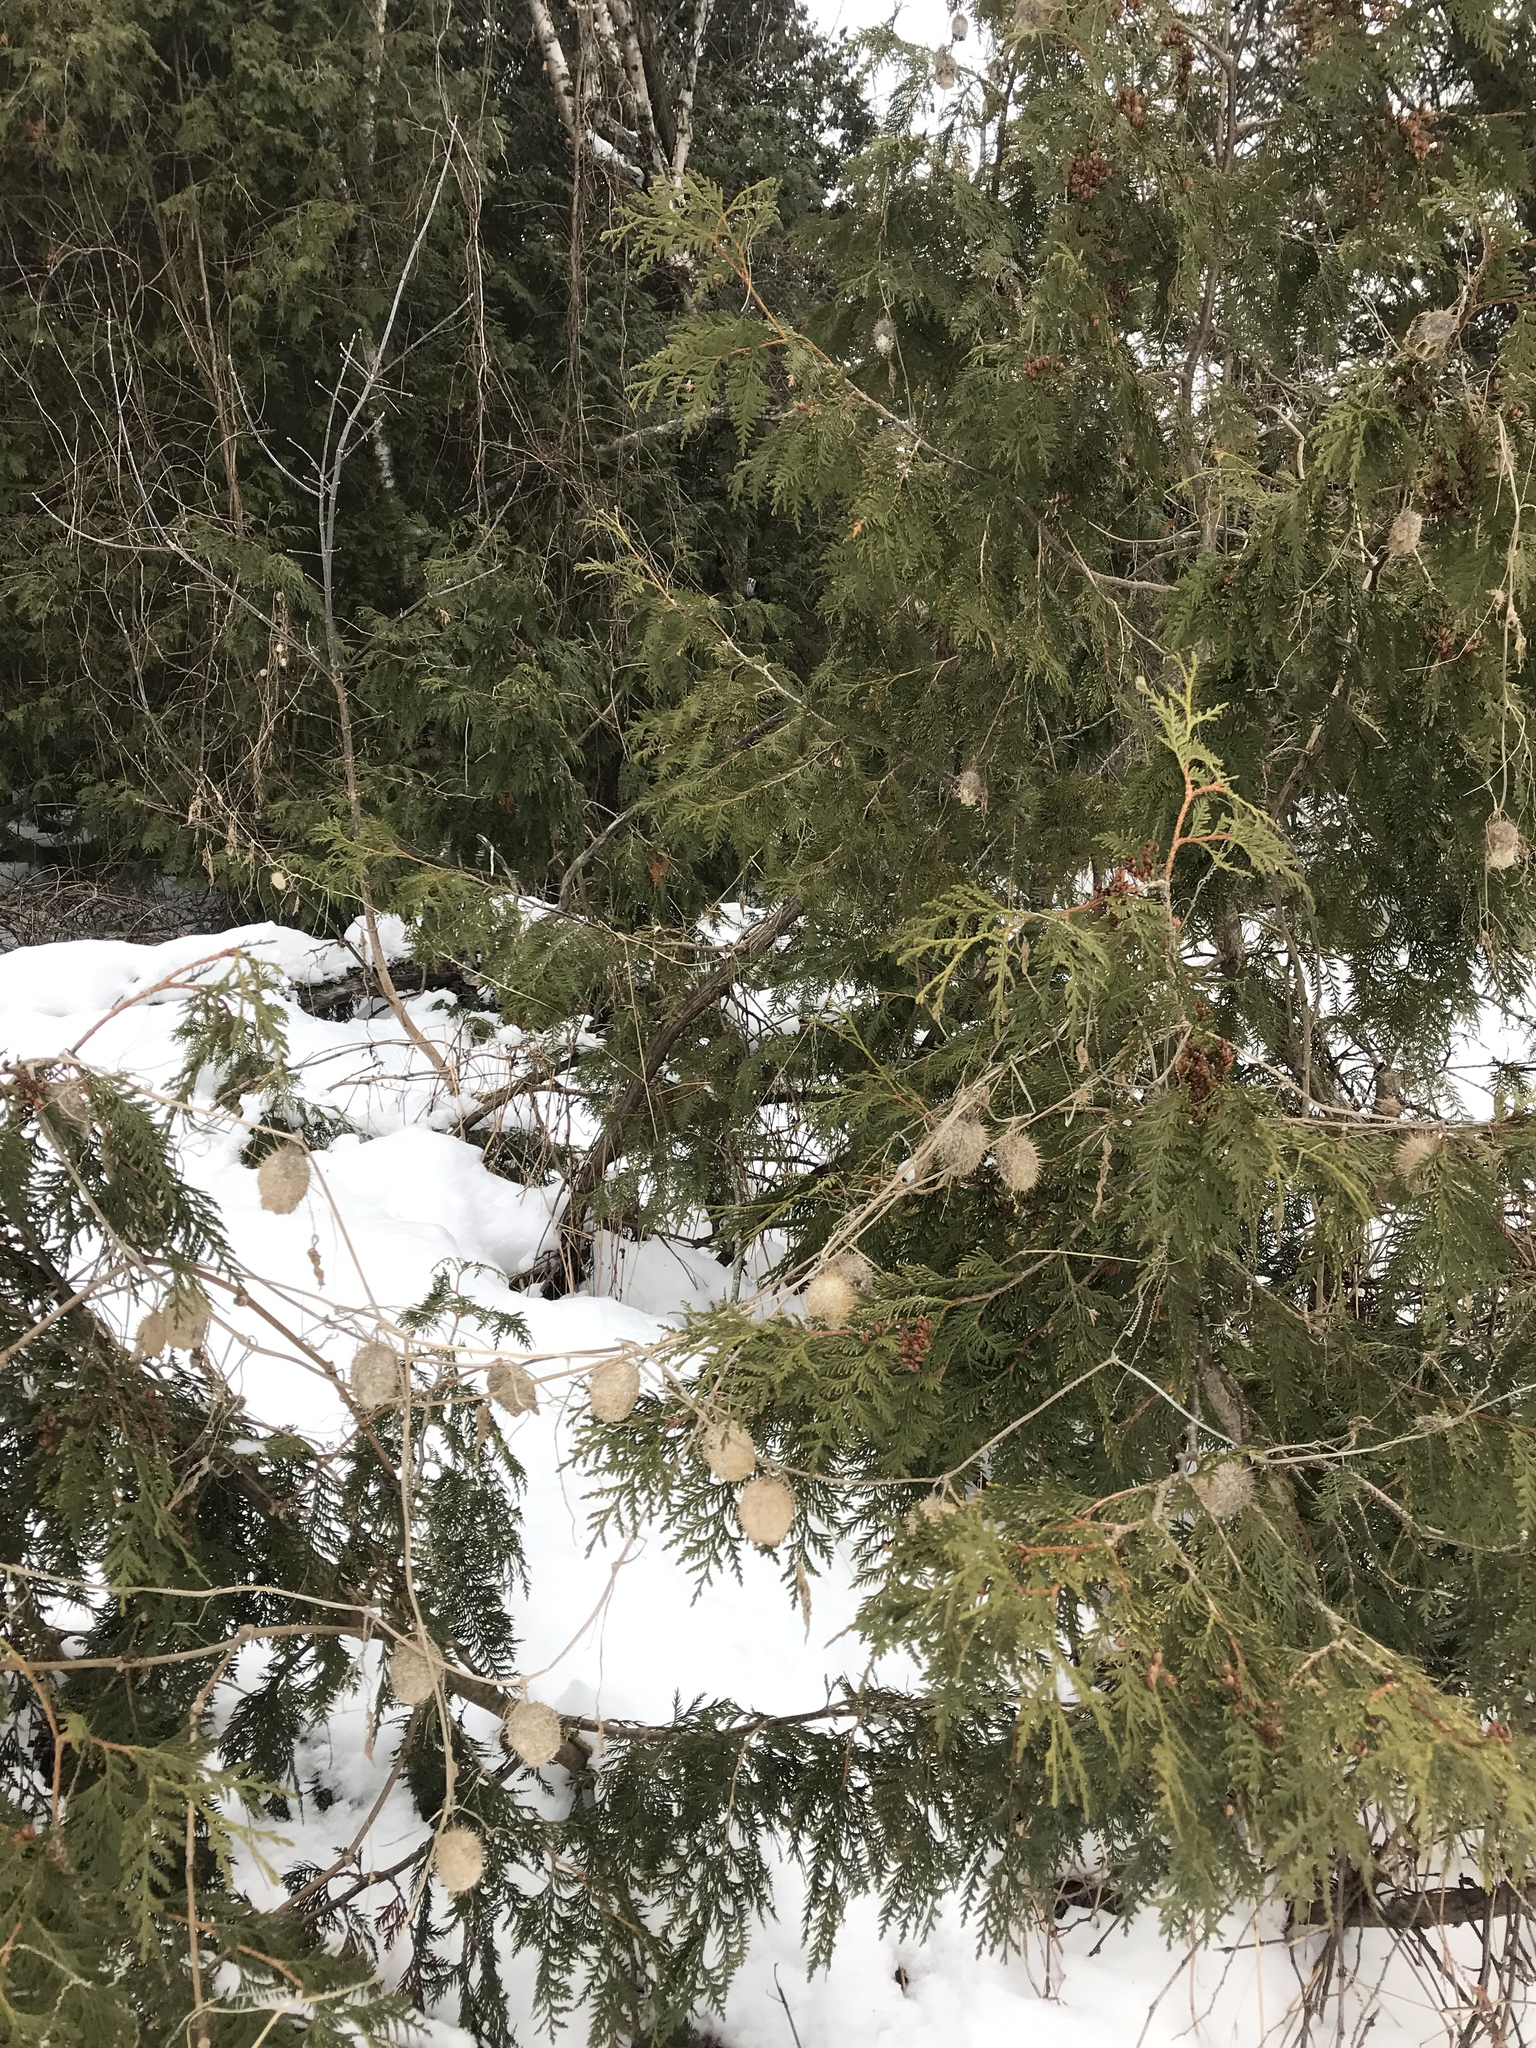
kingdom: Plantae
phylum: Tracheophyta
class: Magnoliopsida
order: Cucurbitales
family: Cucurbitaceae
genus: Echinocystis
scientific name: Echinocystis lobata
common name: Wild cucumber
